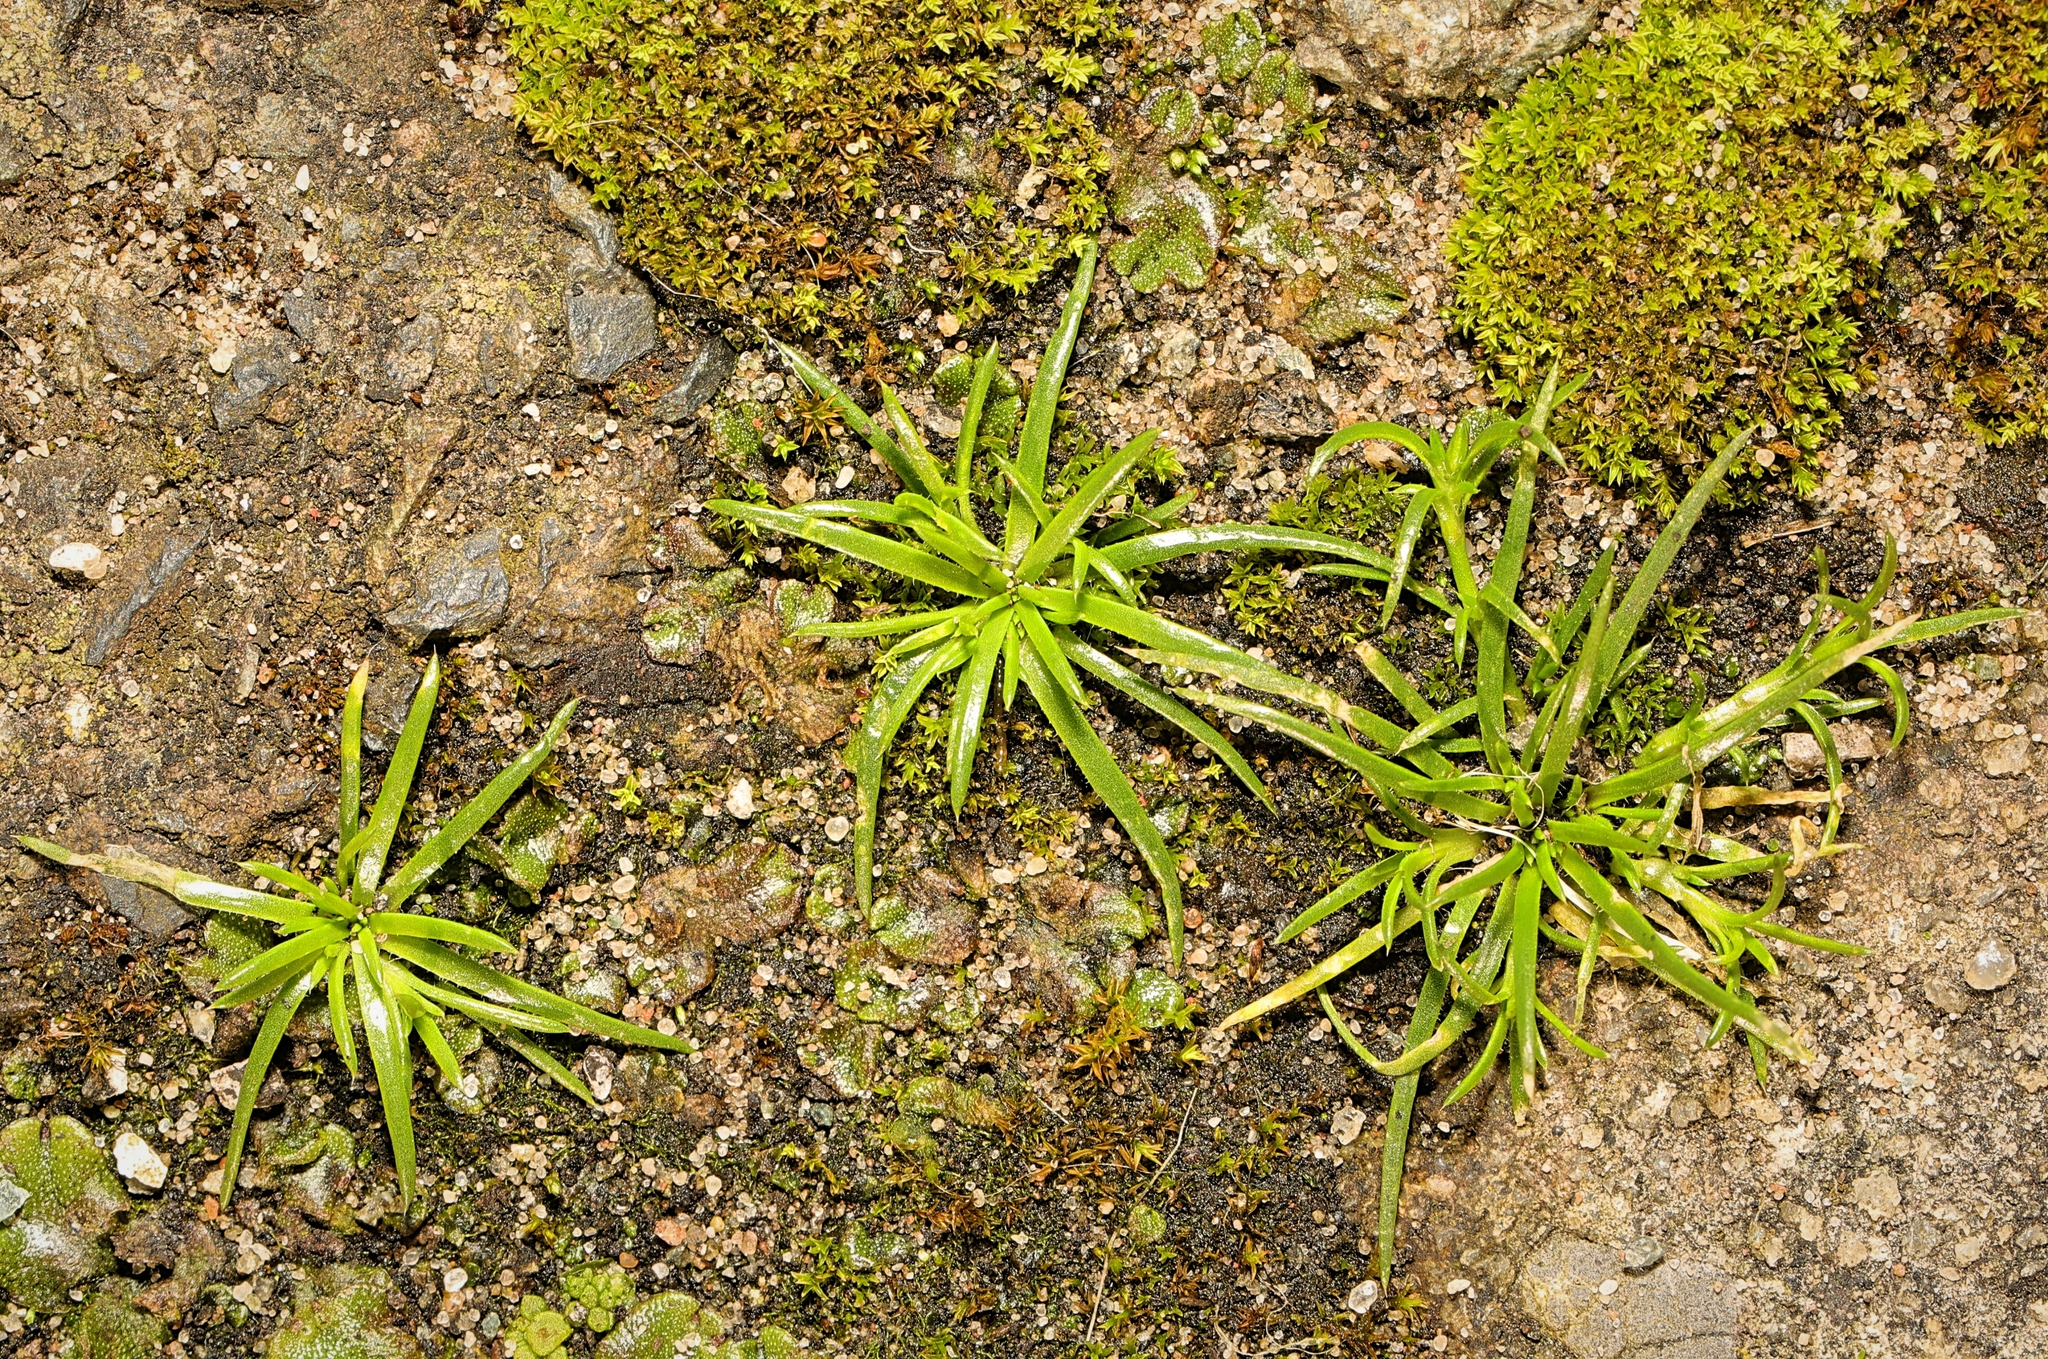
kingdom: Plantae
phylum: Tracheophyta
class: Magnoliopsida
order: Caryophyllales
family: Caryophyllaceae
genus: Sagina
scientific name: Sagina procumbens
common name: Procumbent pearlwort
